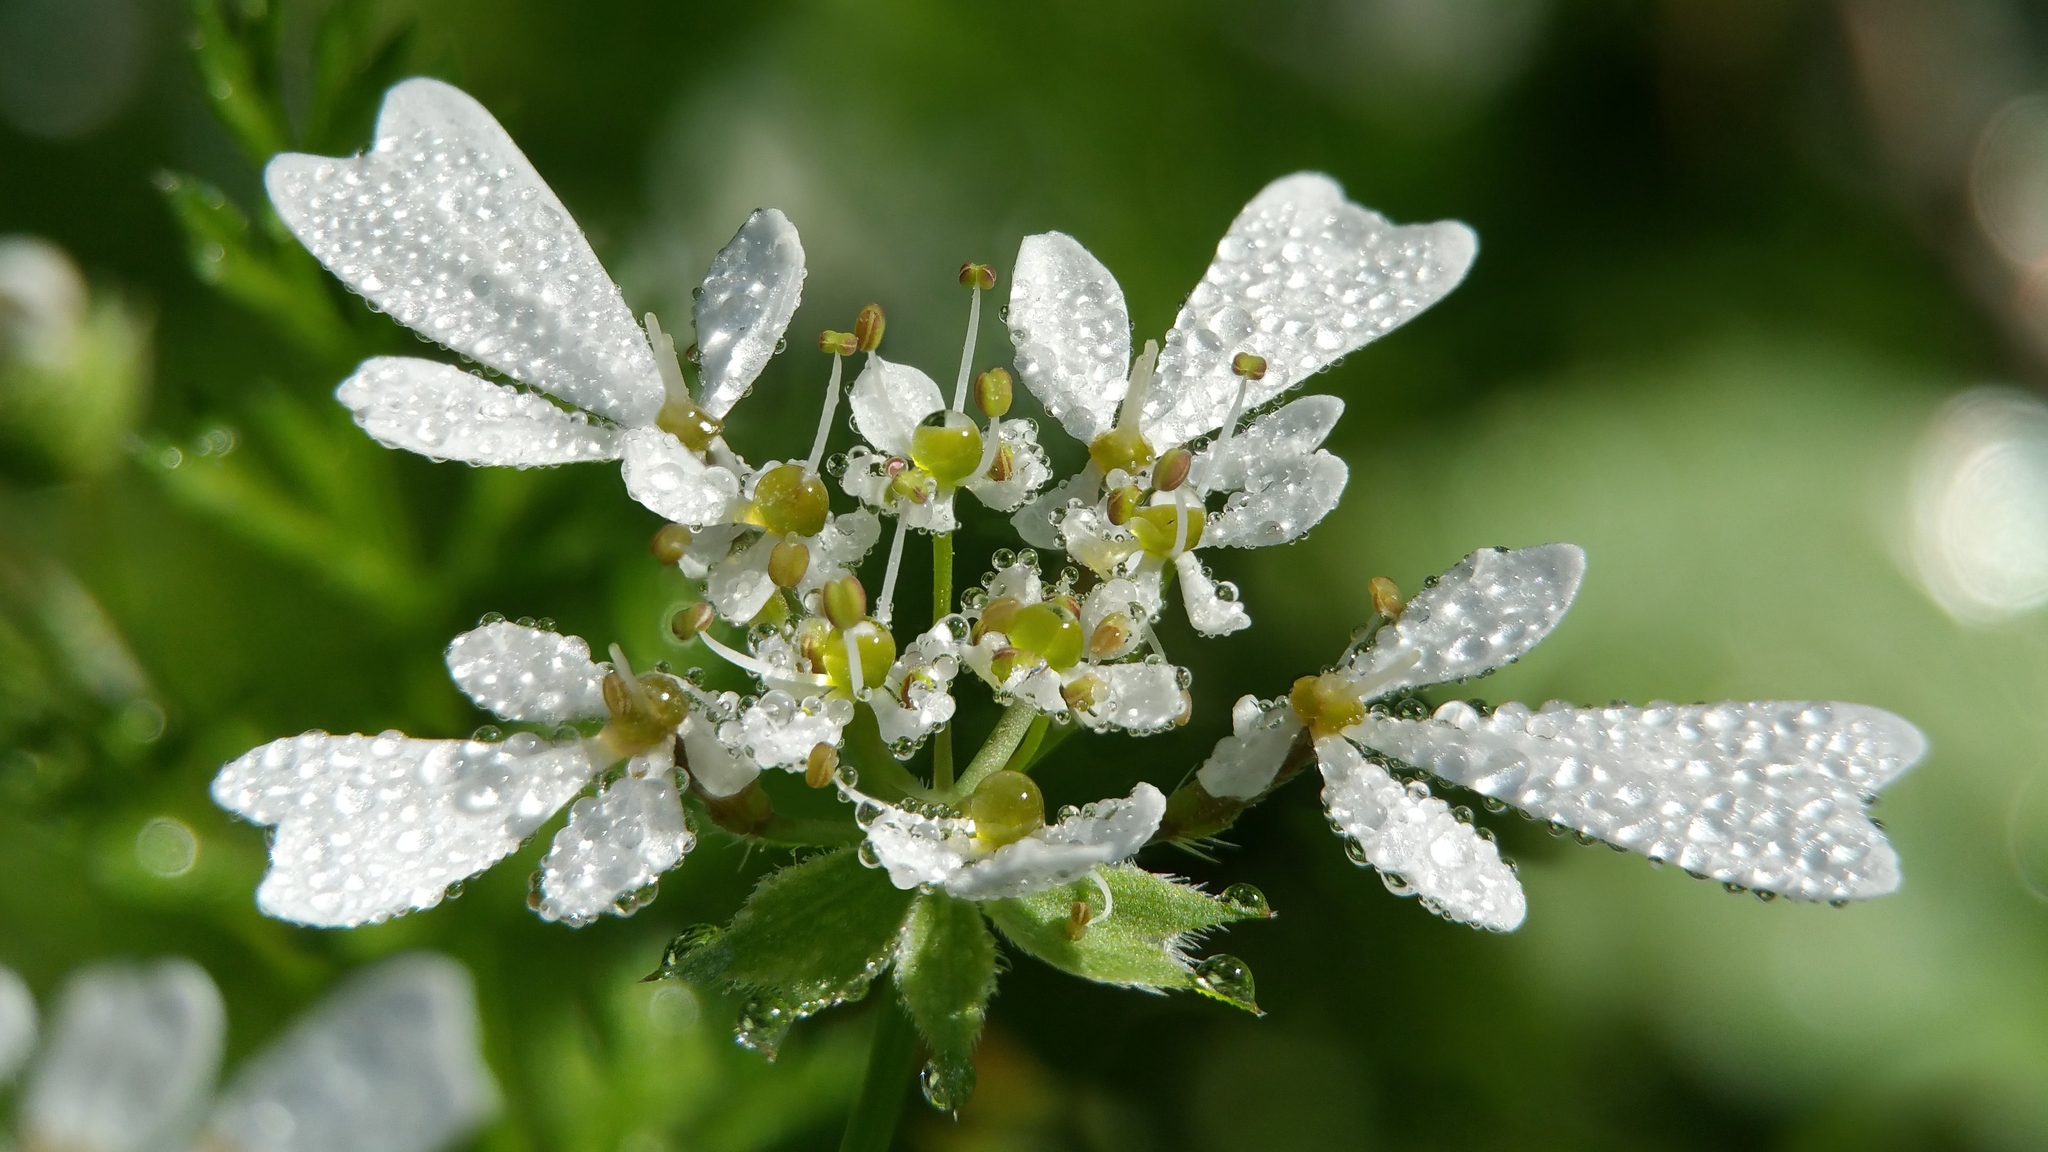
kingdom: Plantae
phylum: Tracheophyta
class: Magnoliopsida
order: Apiales
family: Apiaceae
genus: Scandix
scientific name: Scandix pecten-veneris
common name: Shepherd's-needle
